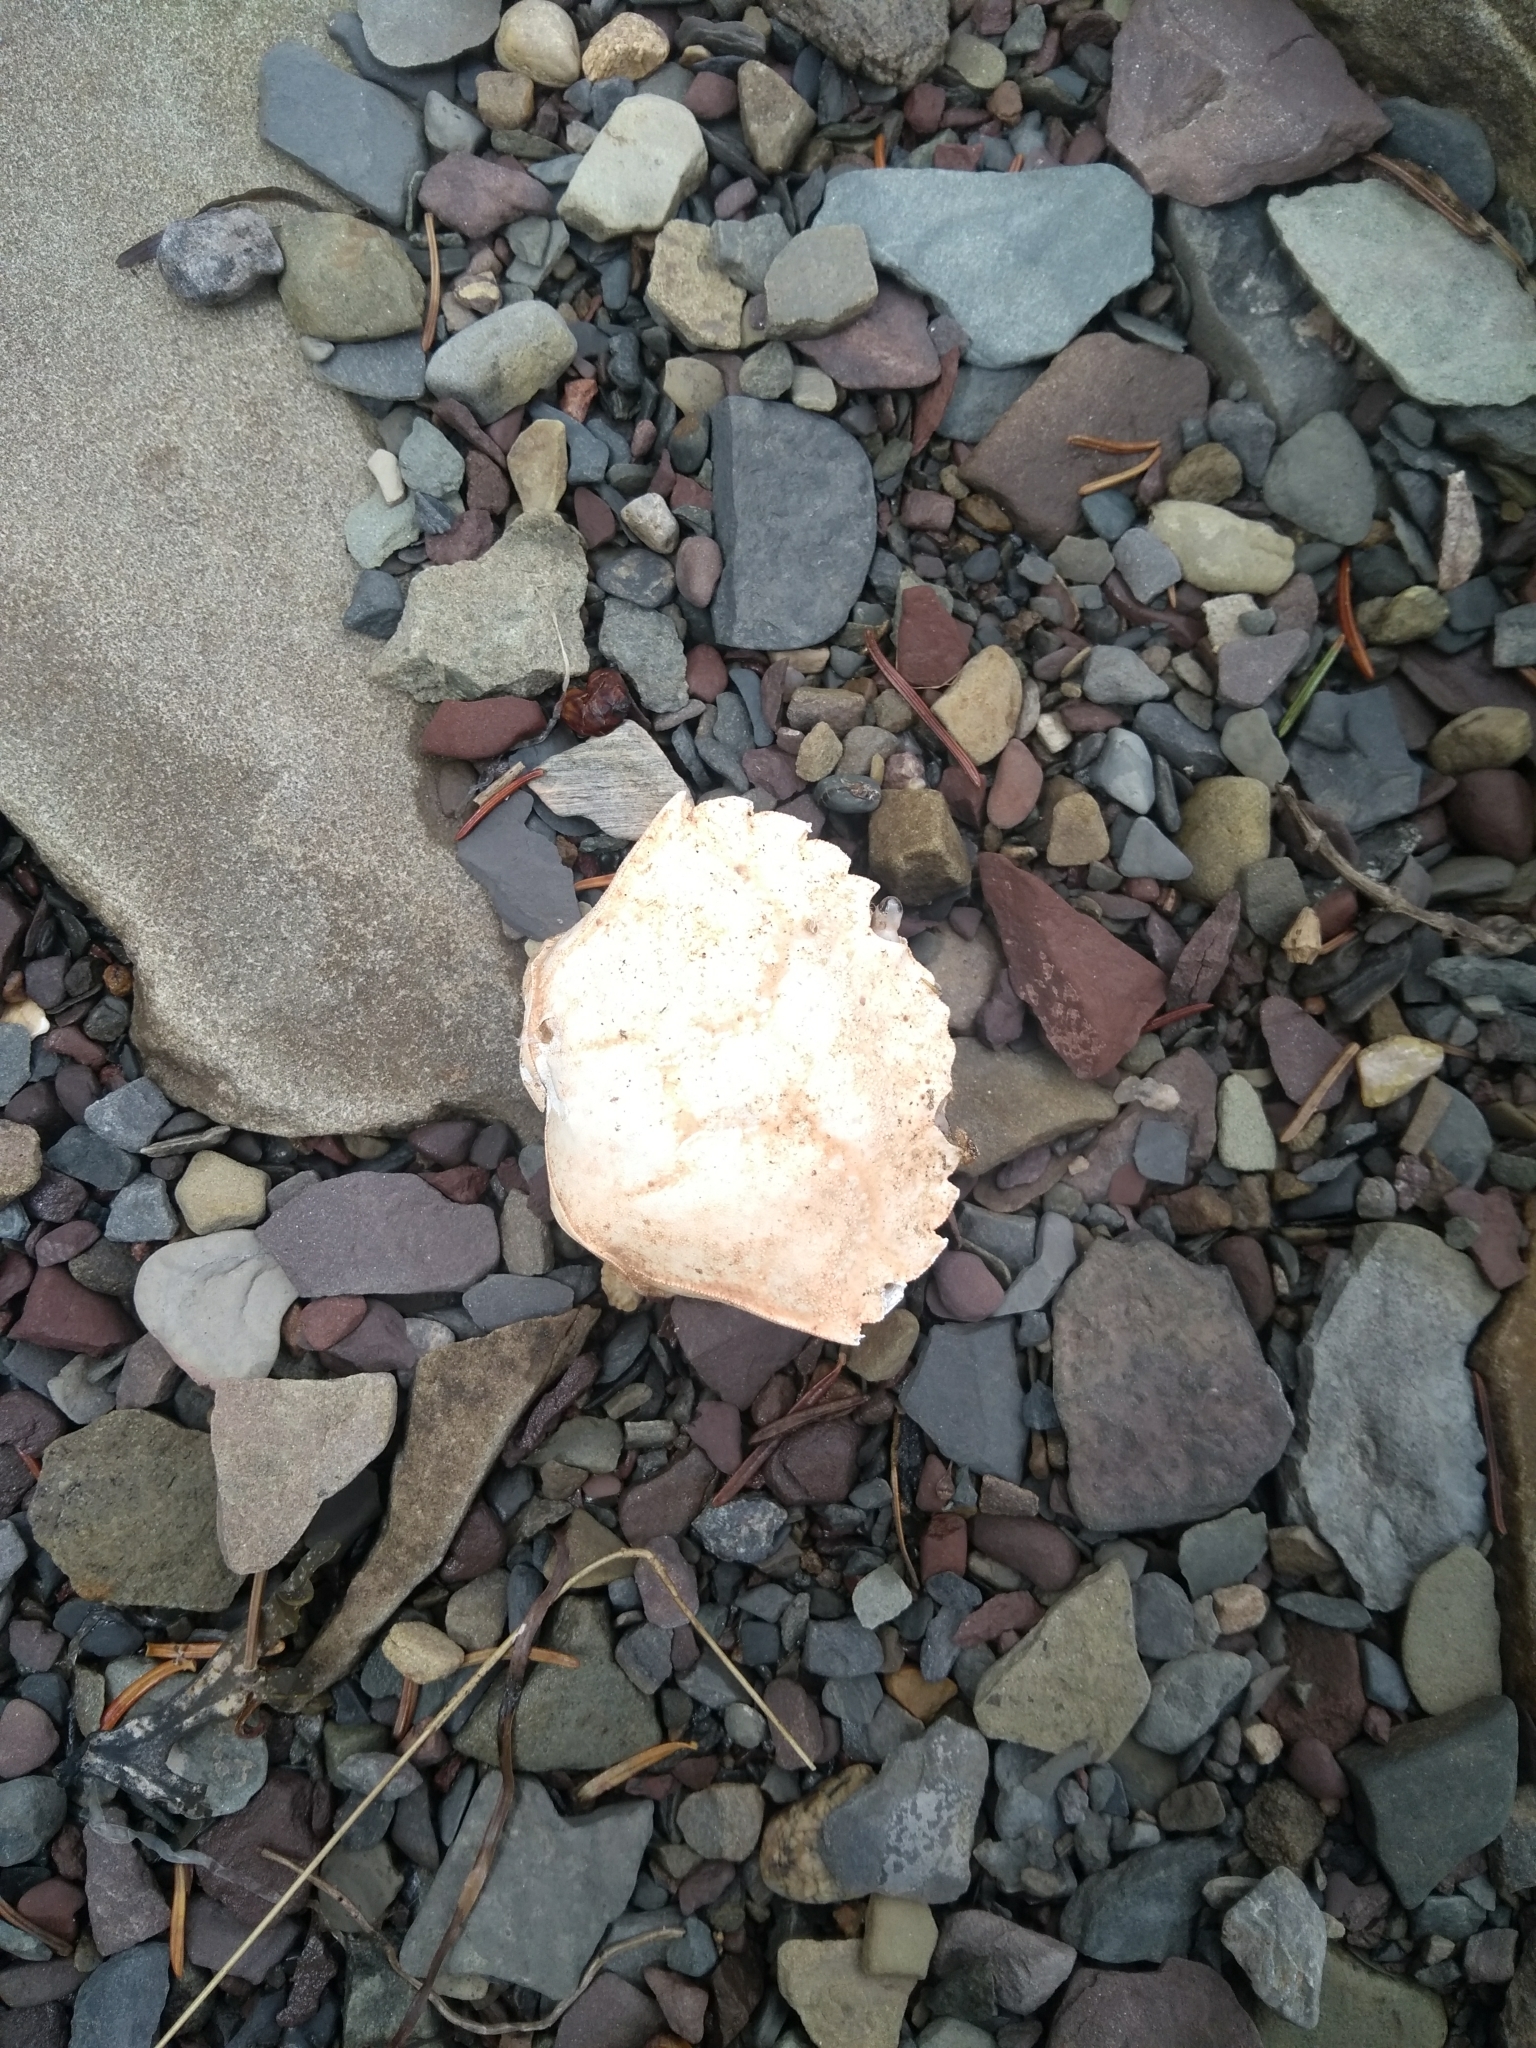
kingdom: Animalia
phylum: Arthropoda
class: Malacostraca
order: Decapoda
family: Carcinidae
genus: Carcinus
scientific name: Carcinus maenas
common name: European green crab
